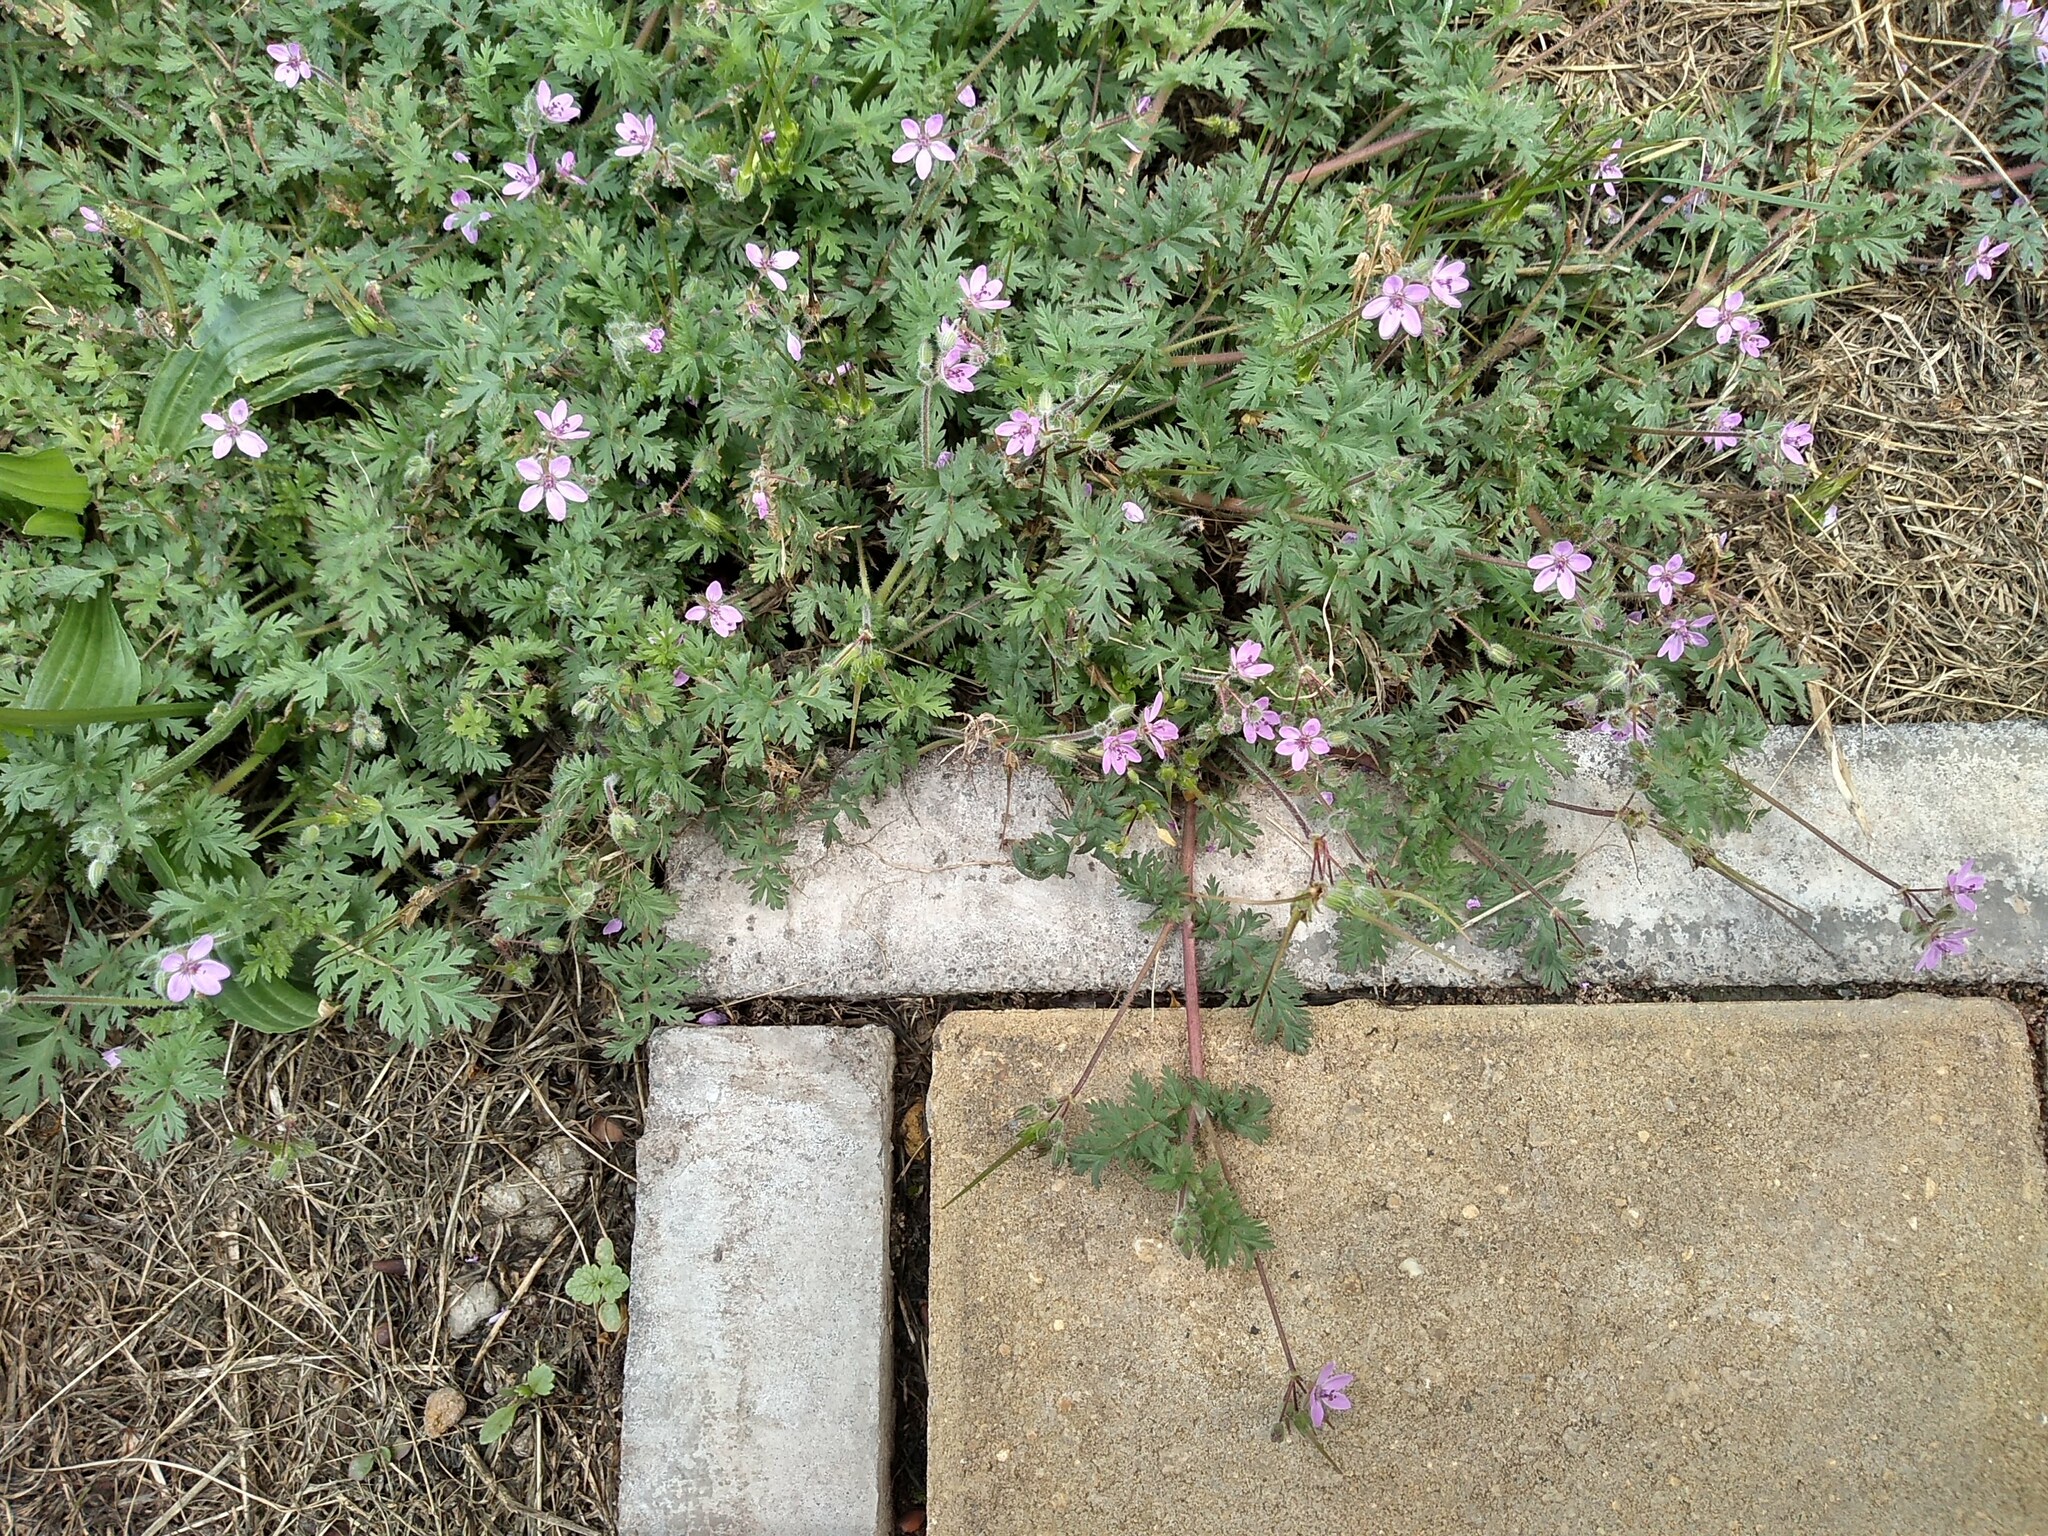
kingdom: Plantae
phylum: Tracheophyta
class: Magnoliopsida
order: Geraniales
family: Geraniaceae
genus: Erodium
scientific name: Erodium cicutarium
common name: Common stork's-bill
